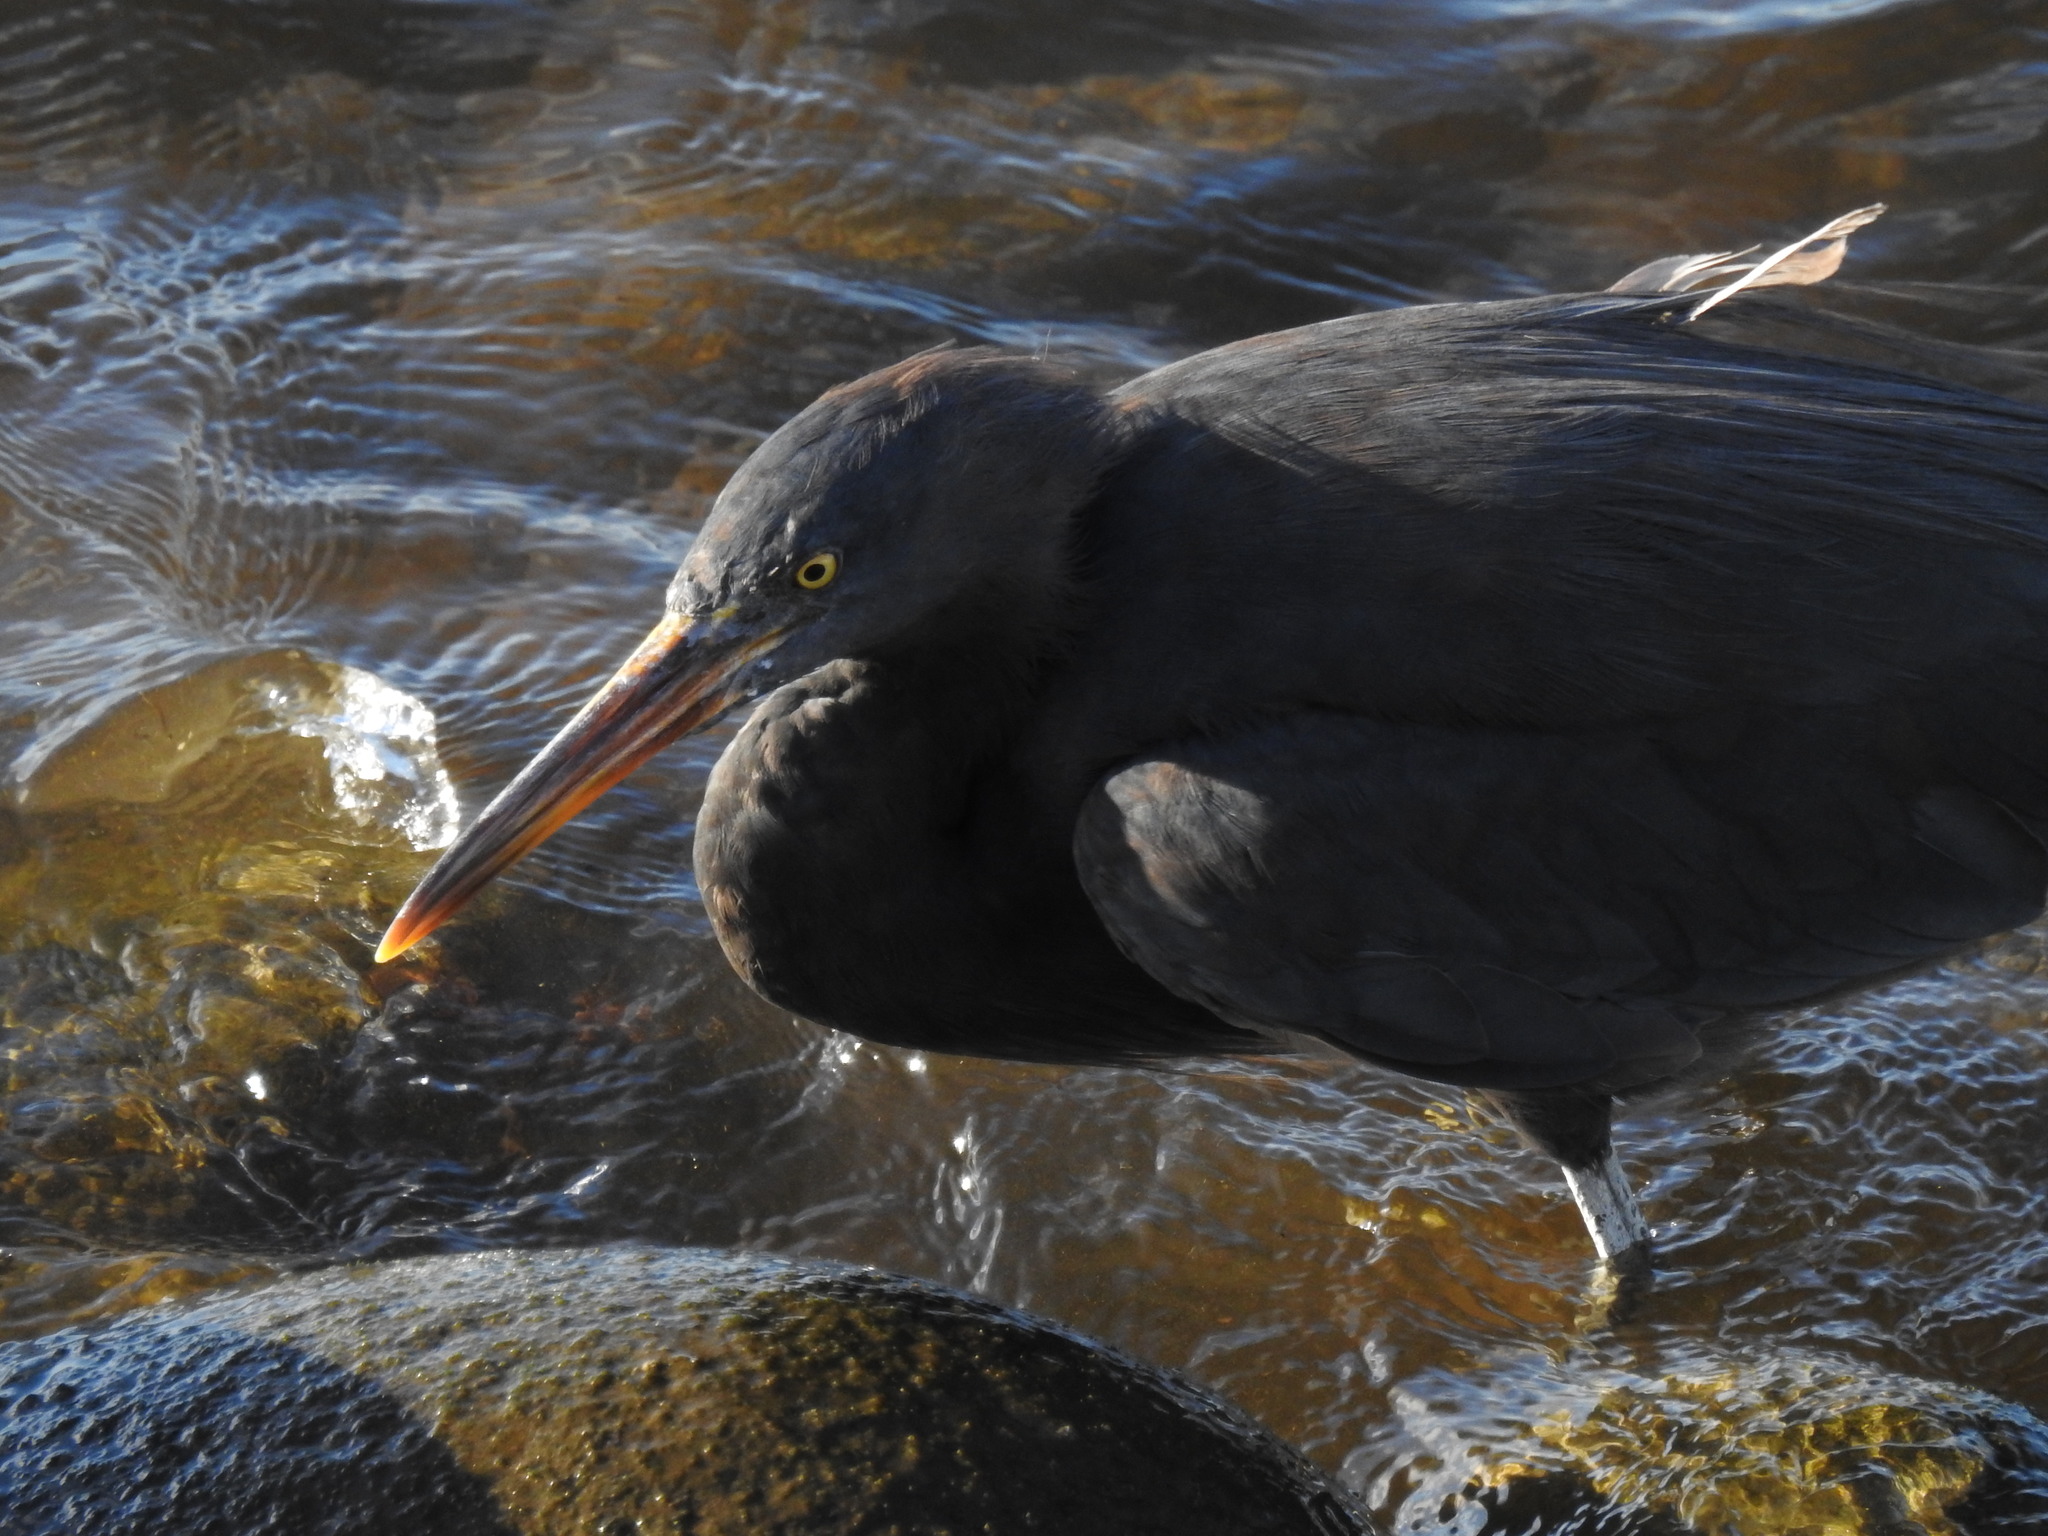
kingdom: Animalia
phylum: Chordata
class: Aves
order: Pelecaniformes
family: Ardeidae
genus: Egretta
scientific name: Egretta sacra
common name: Pacific reef heron
